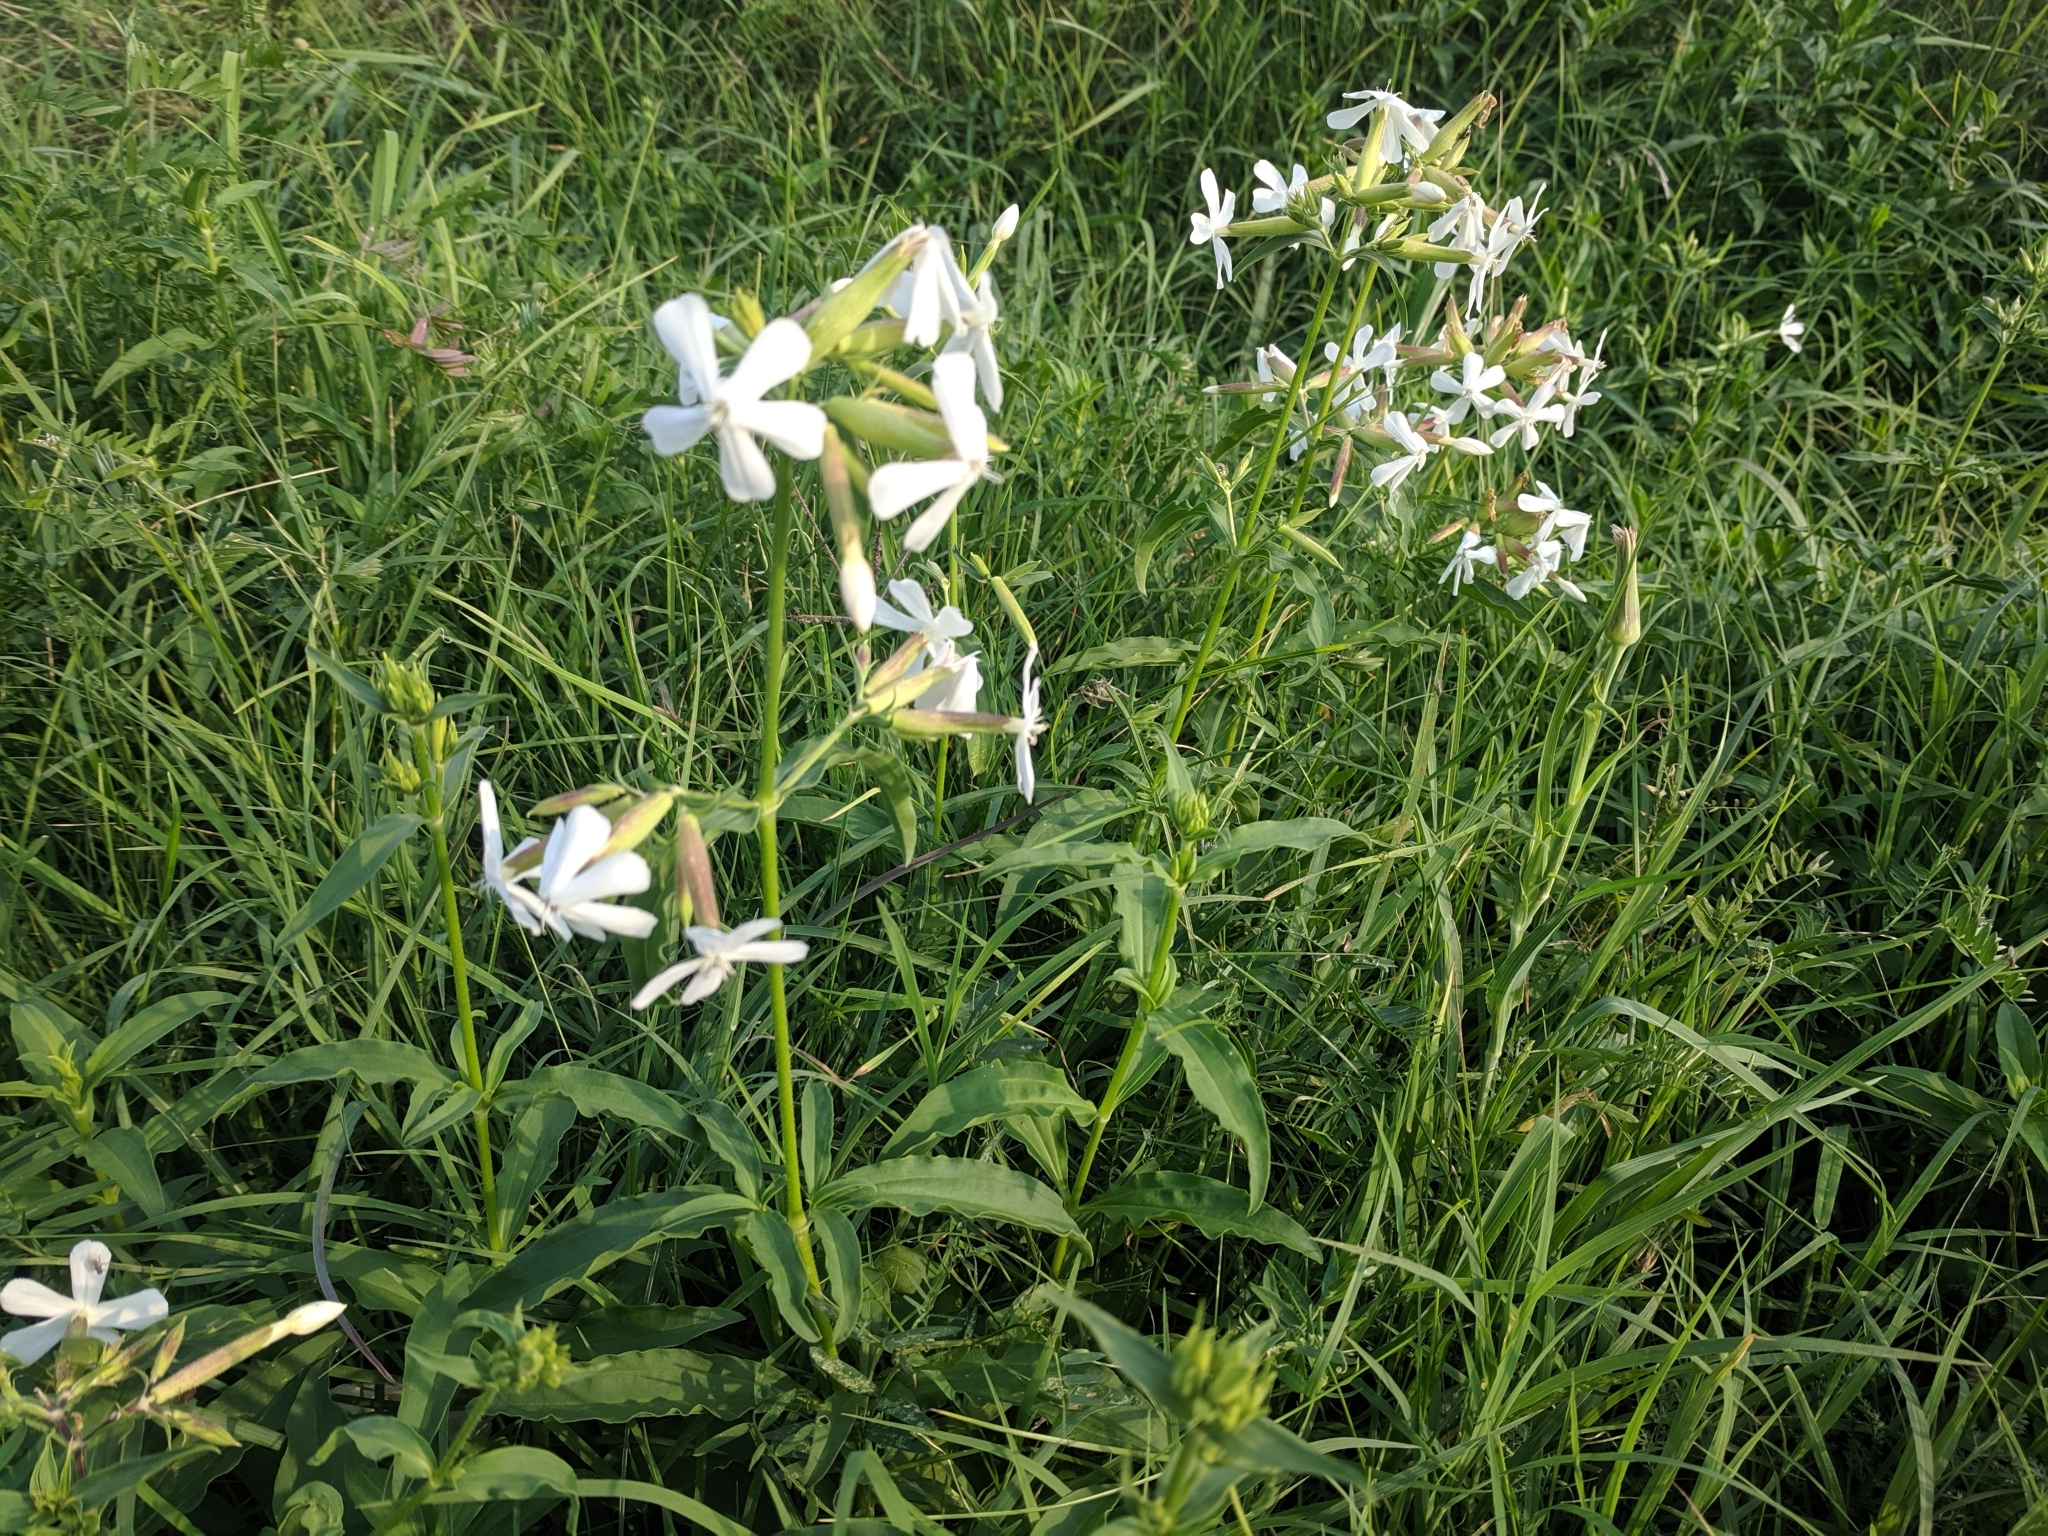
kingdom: Plantae
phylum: Tracheophyta
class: Magnoliopsida
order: Caryophyllales
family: Caryophyllaceae
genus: Saponaria
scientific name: Saponaria officinalis
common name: Soapwort
